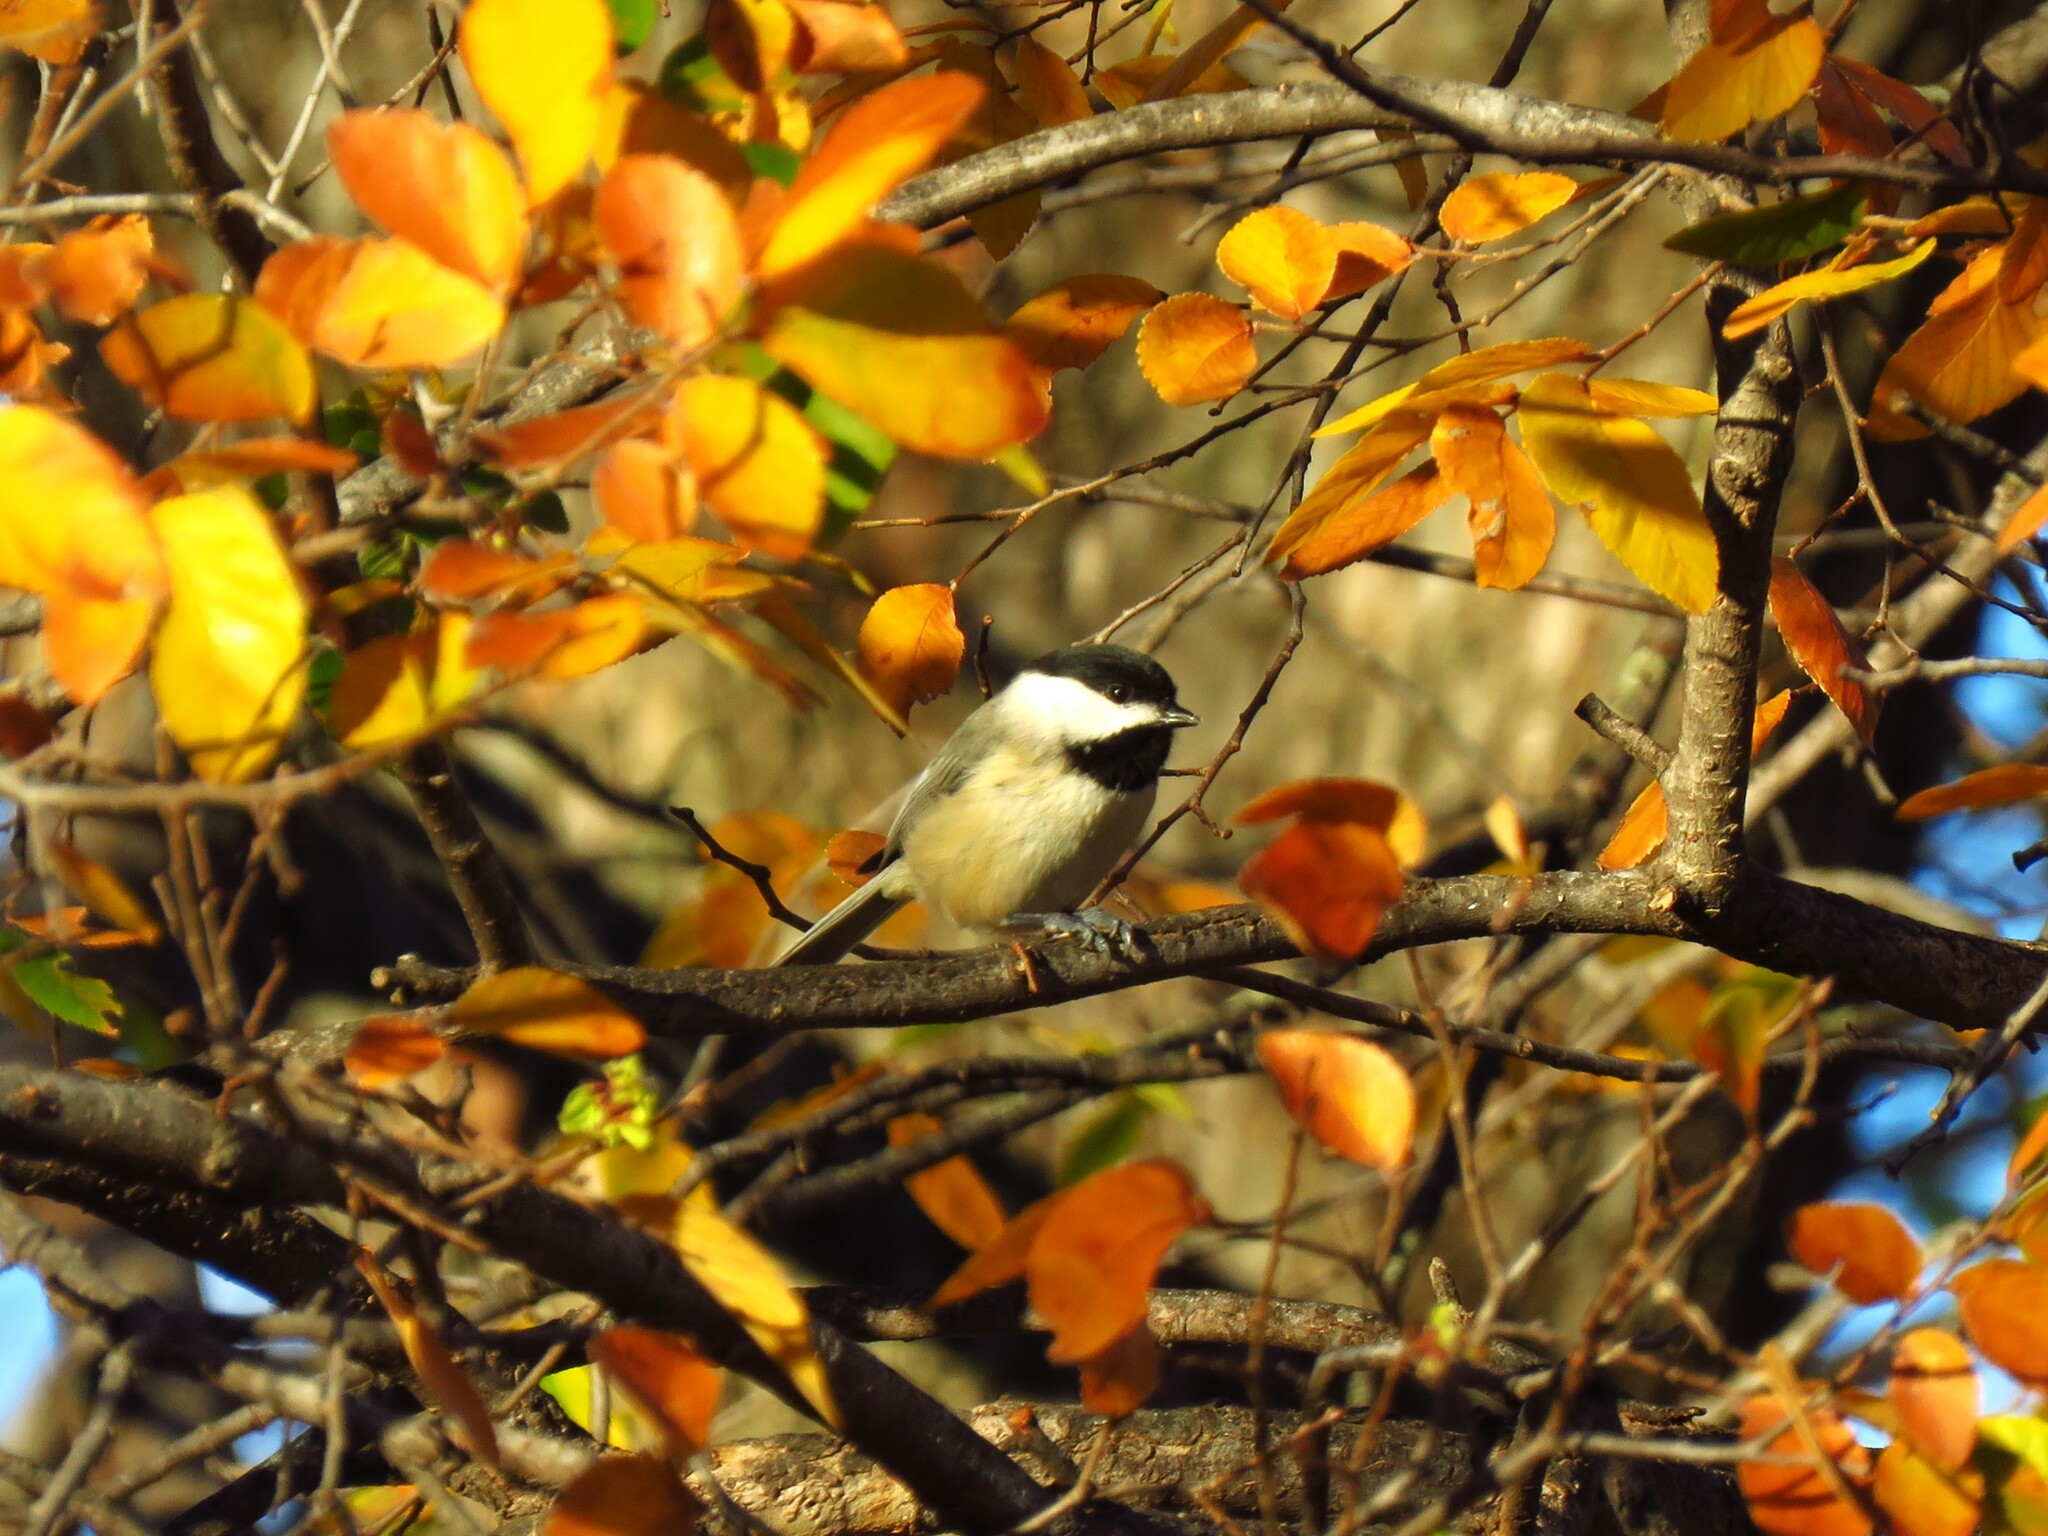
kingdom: Animalia
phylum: Chordata
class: Aves
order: Passeriformes
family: Paridae
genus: Poecile
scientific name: Poecile carolinensis
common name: Carolina chickadee
